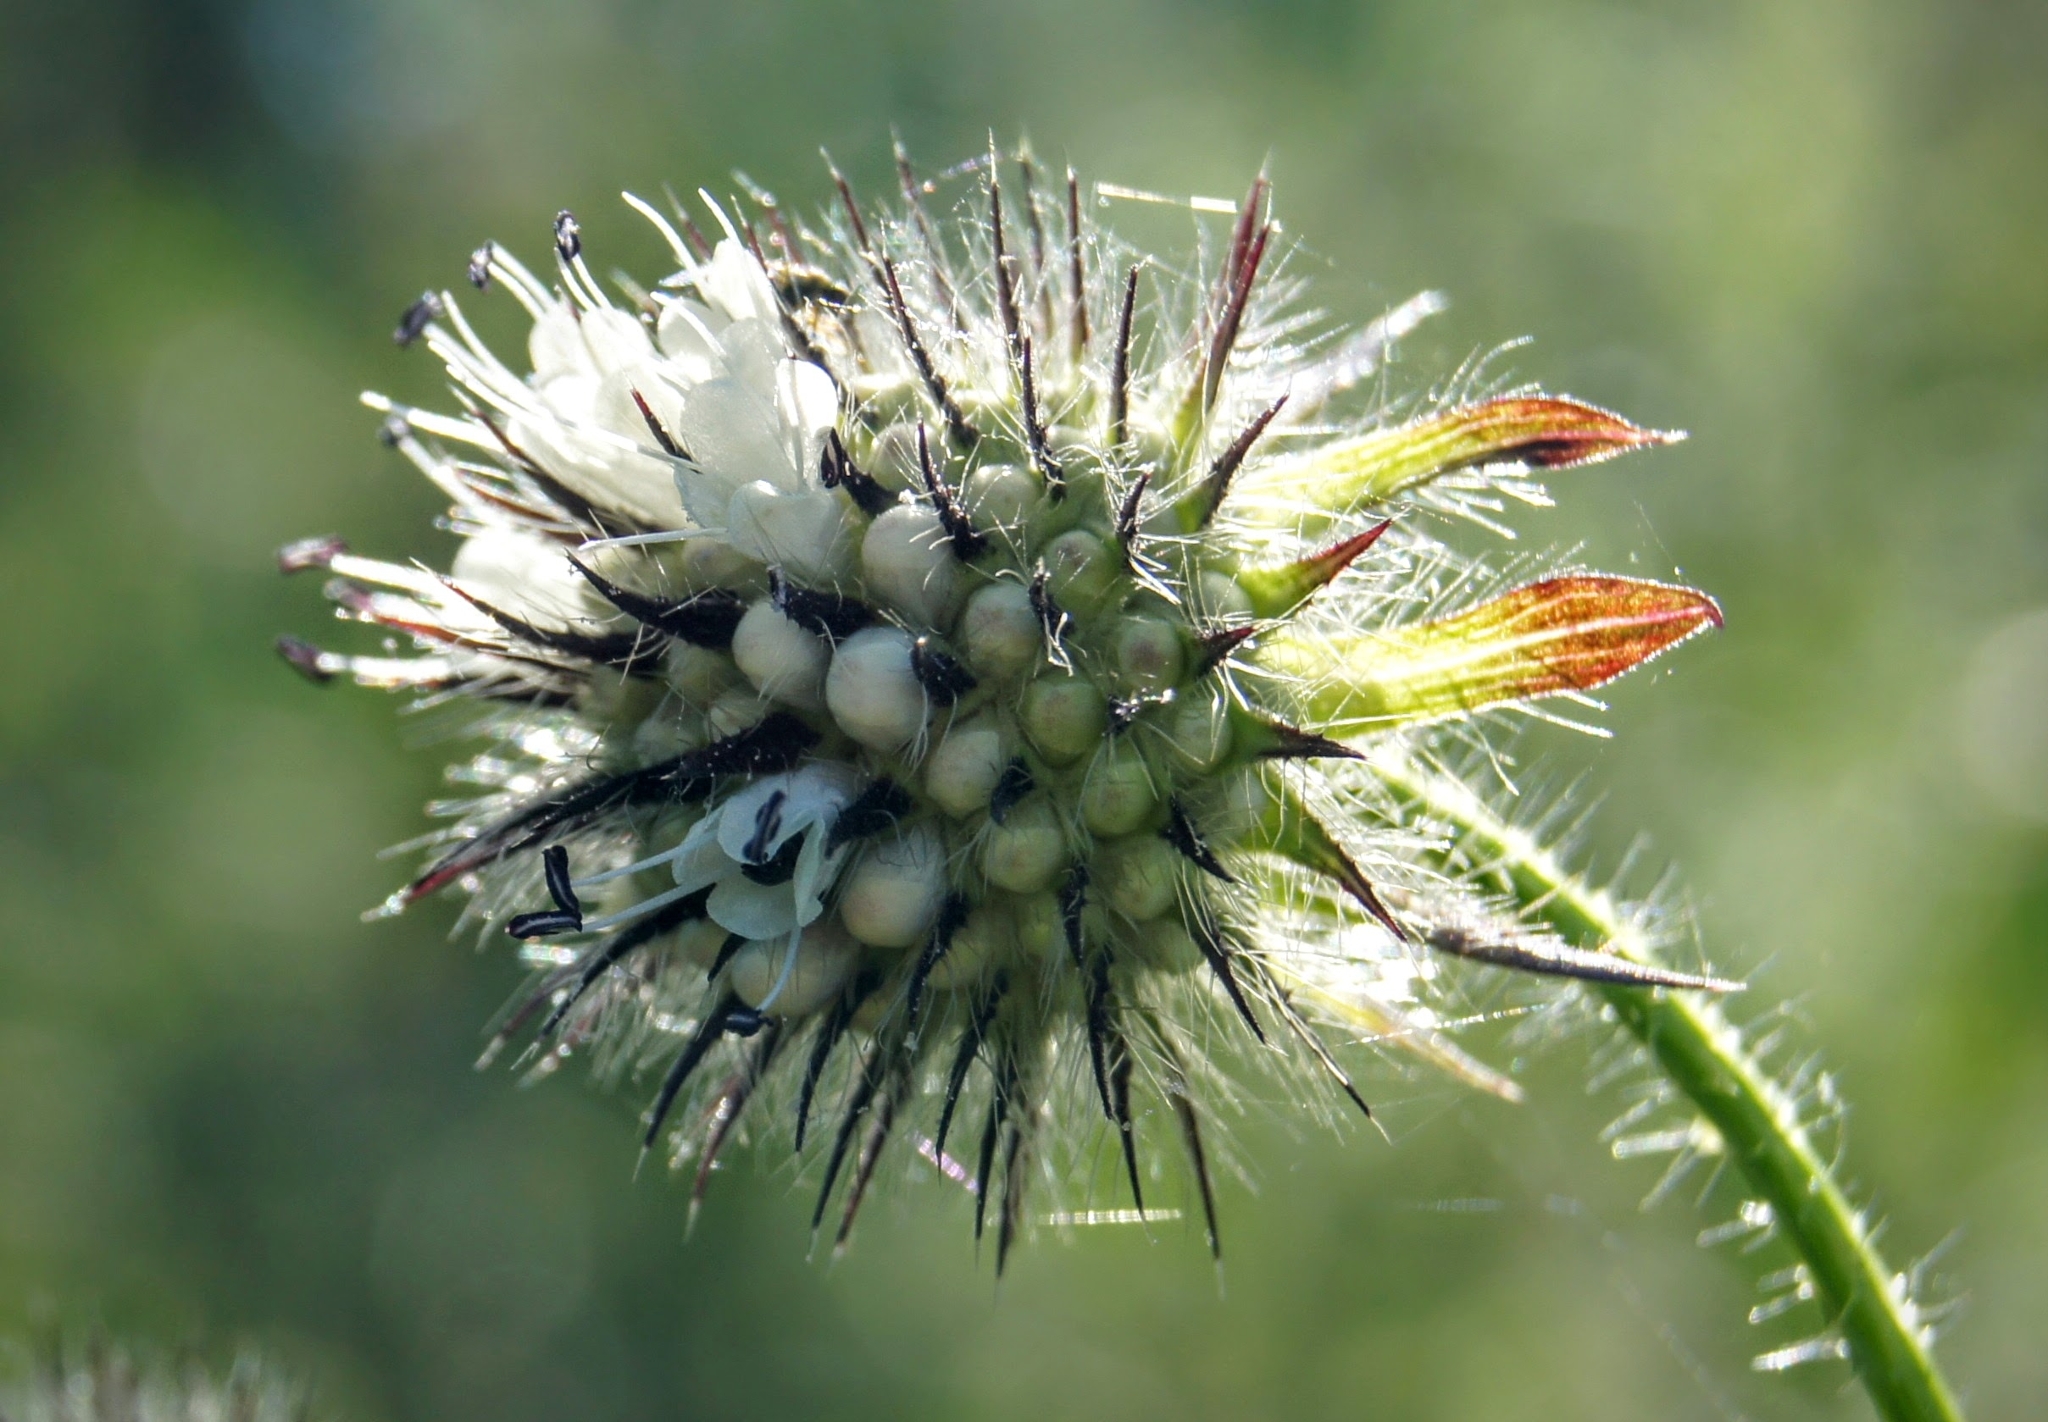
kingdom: Plantae
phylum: Tracheophyta
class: Magnoliopsida
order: Dipsacales
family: Caprifoliaceae
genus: Dipsacus
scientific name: Dipsacus pilosus
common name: Small teasel
